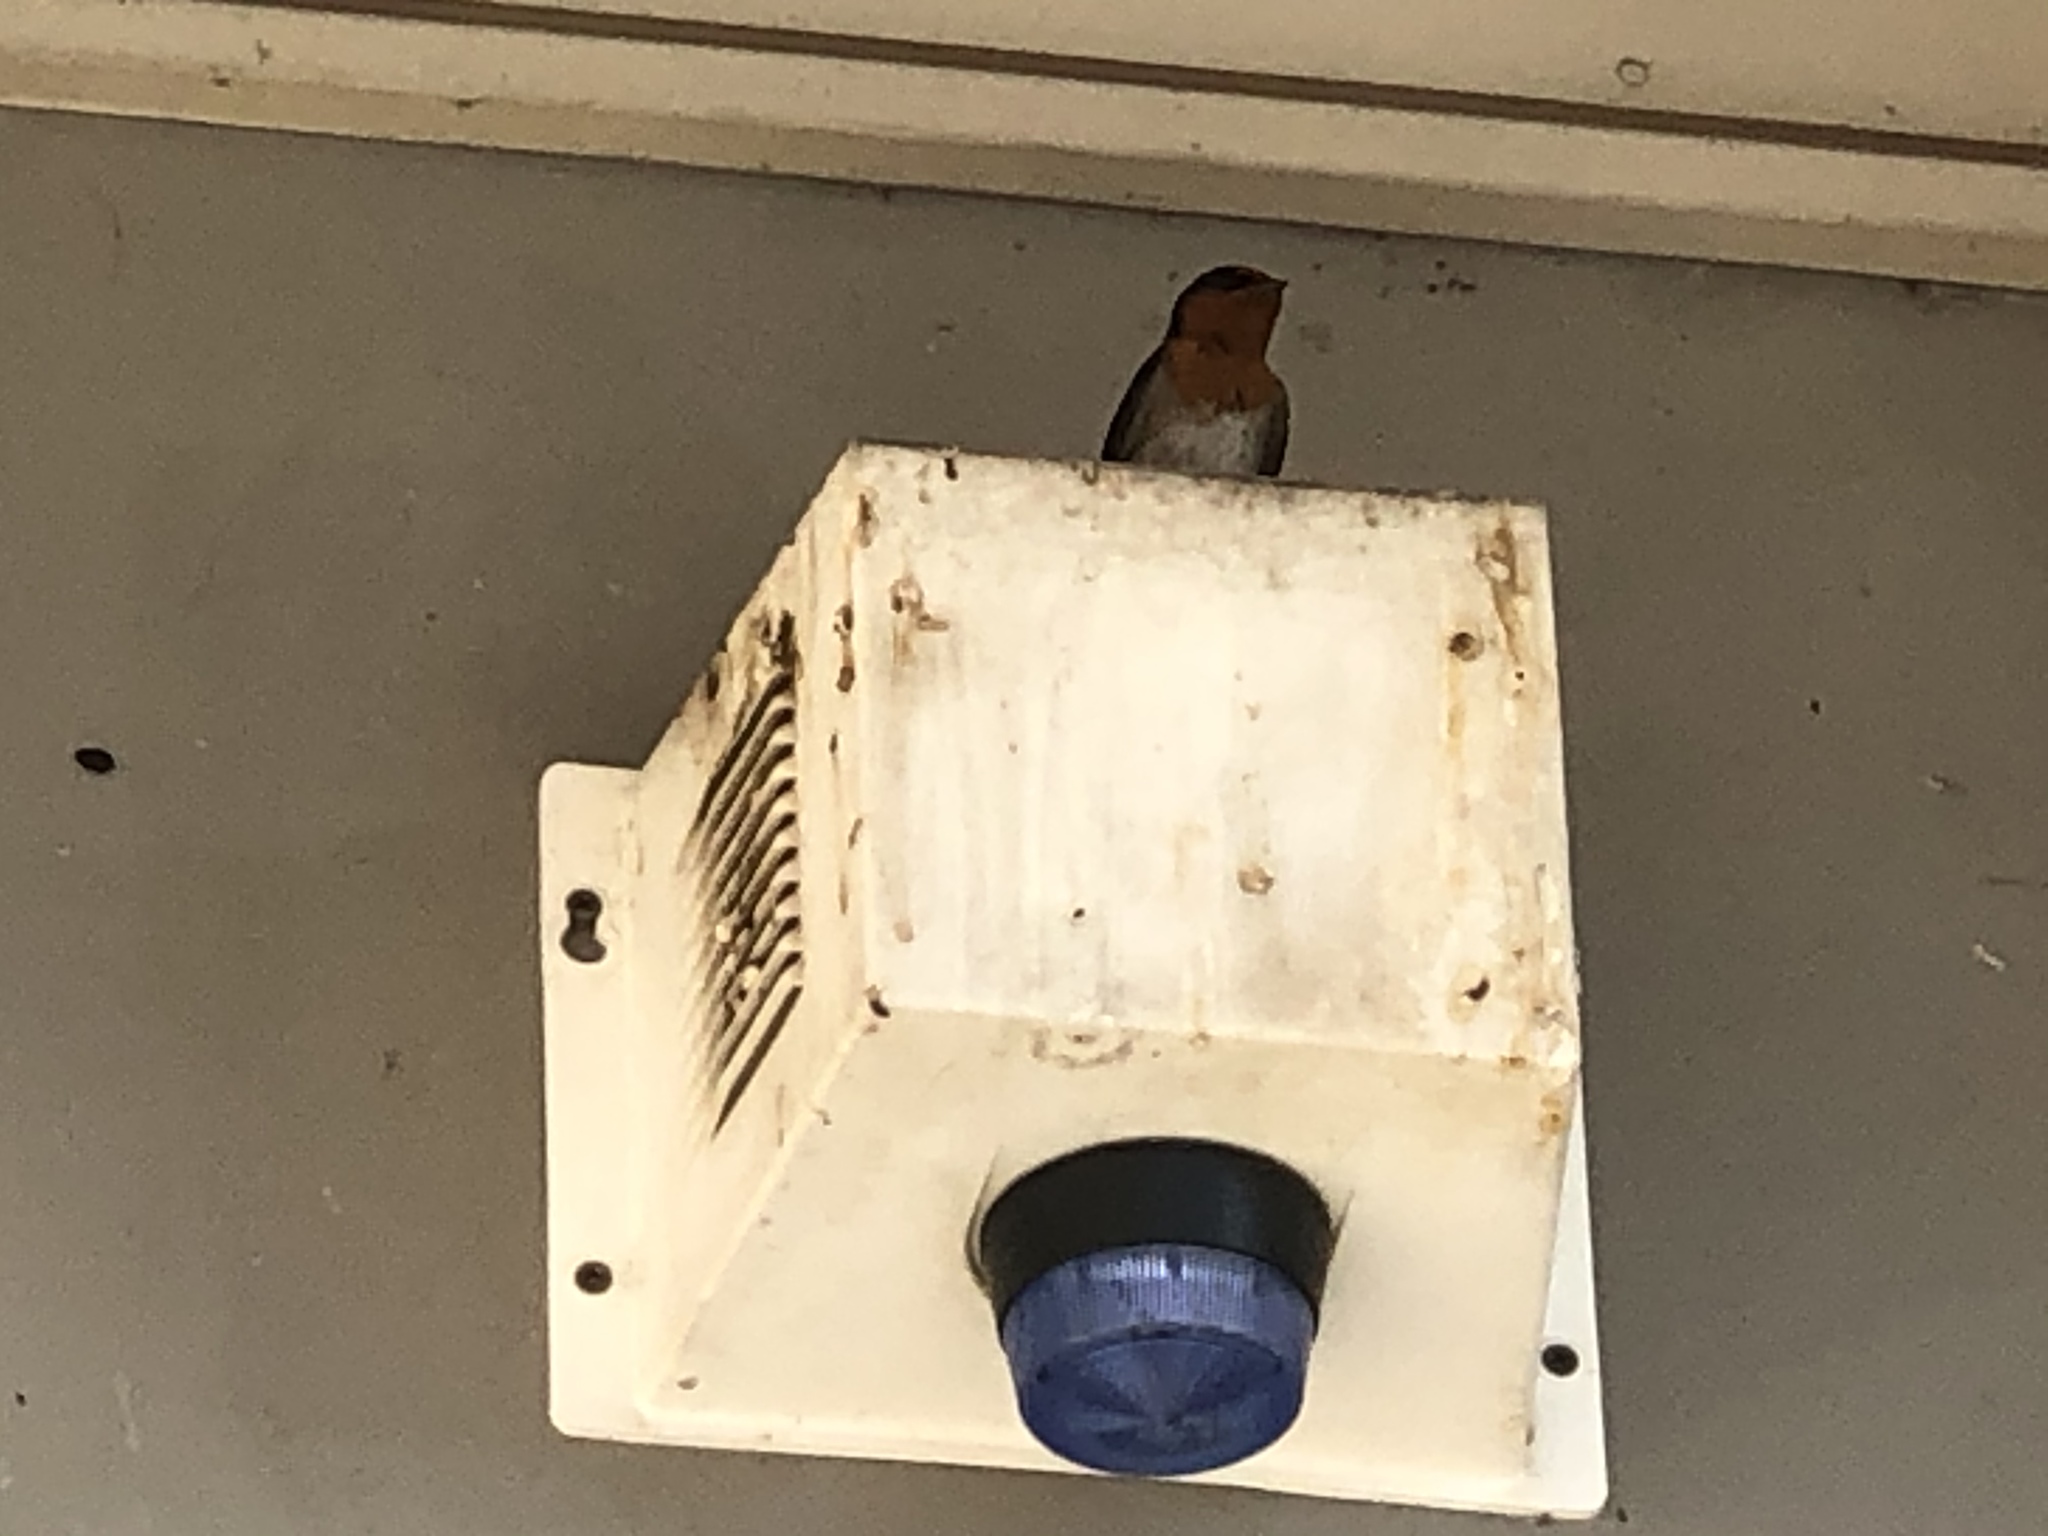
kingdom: Animalia
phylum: Chordata
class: Aves
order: Passeriformes
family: Hirundinidae
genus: Hirundo
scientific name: Hirundo neoxena
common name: Welcome swallow
